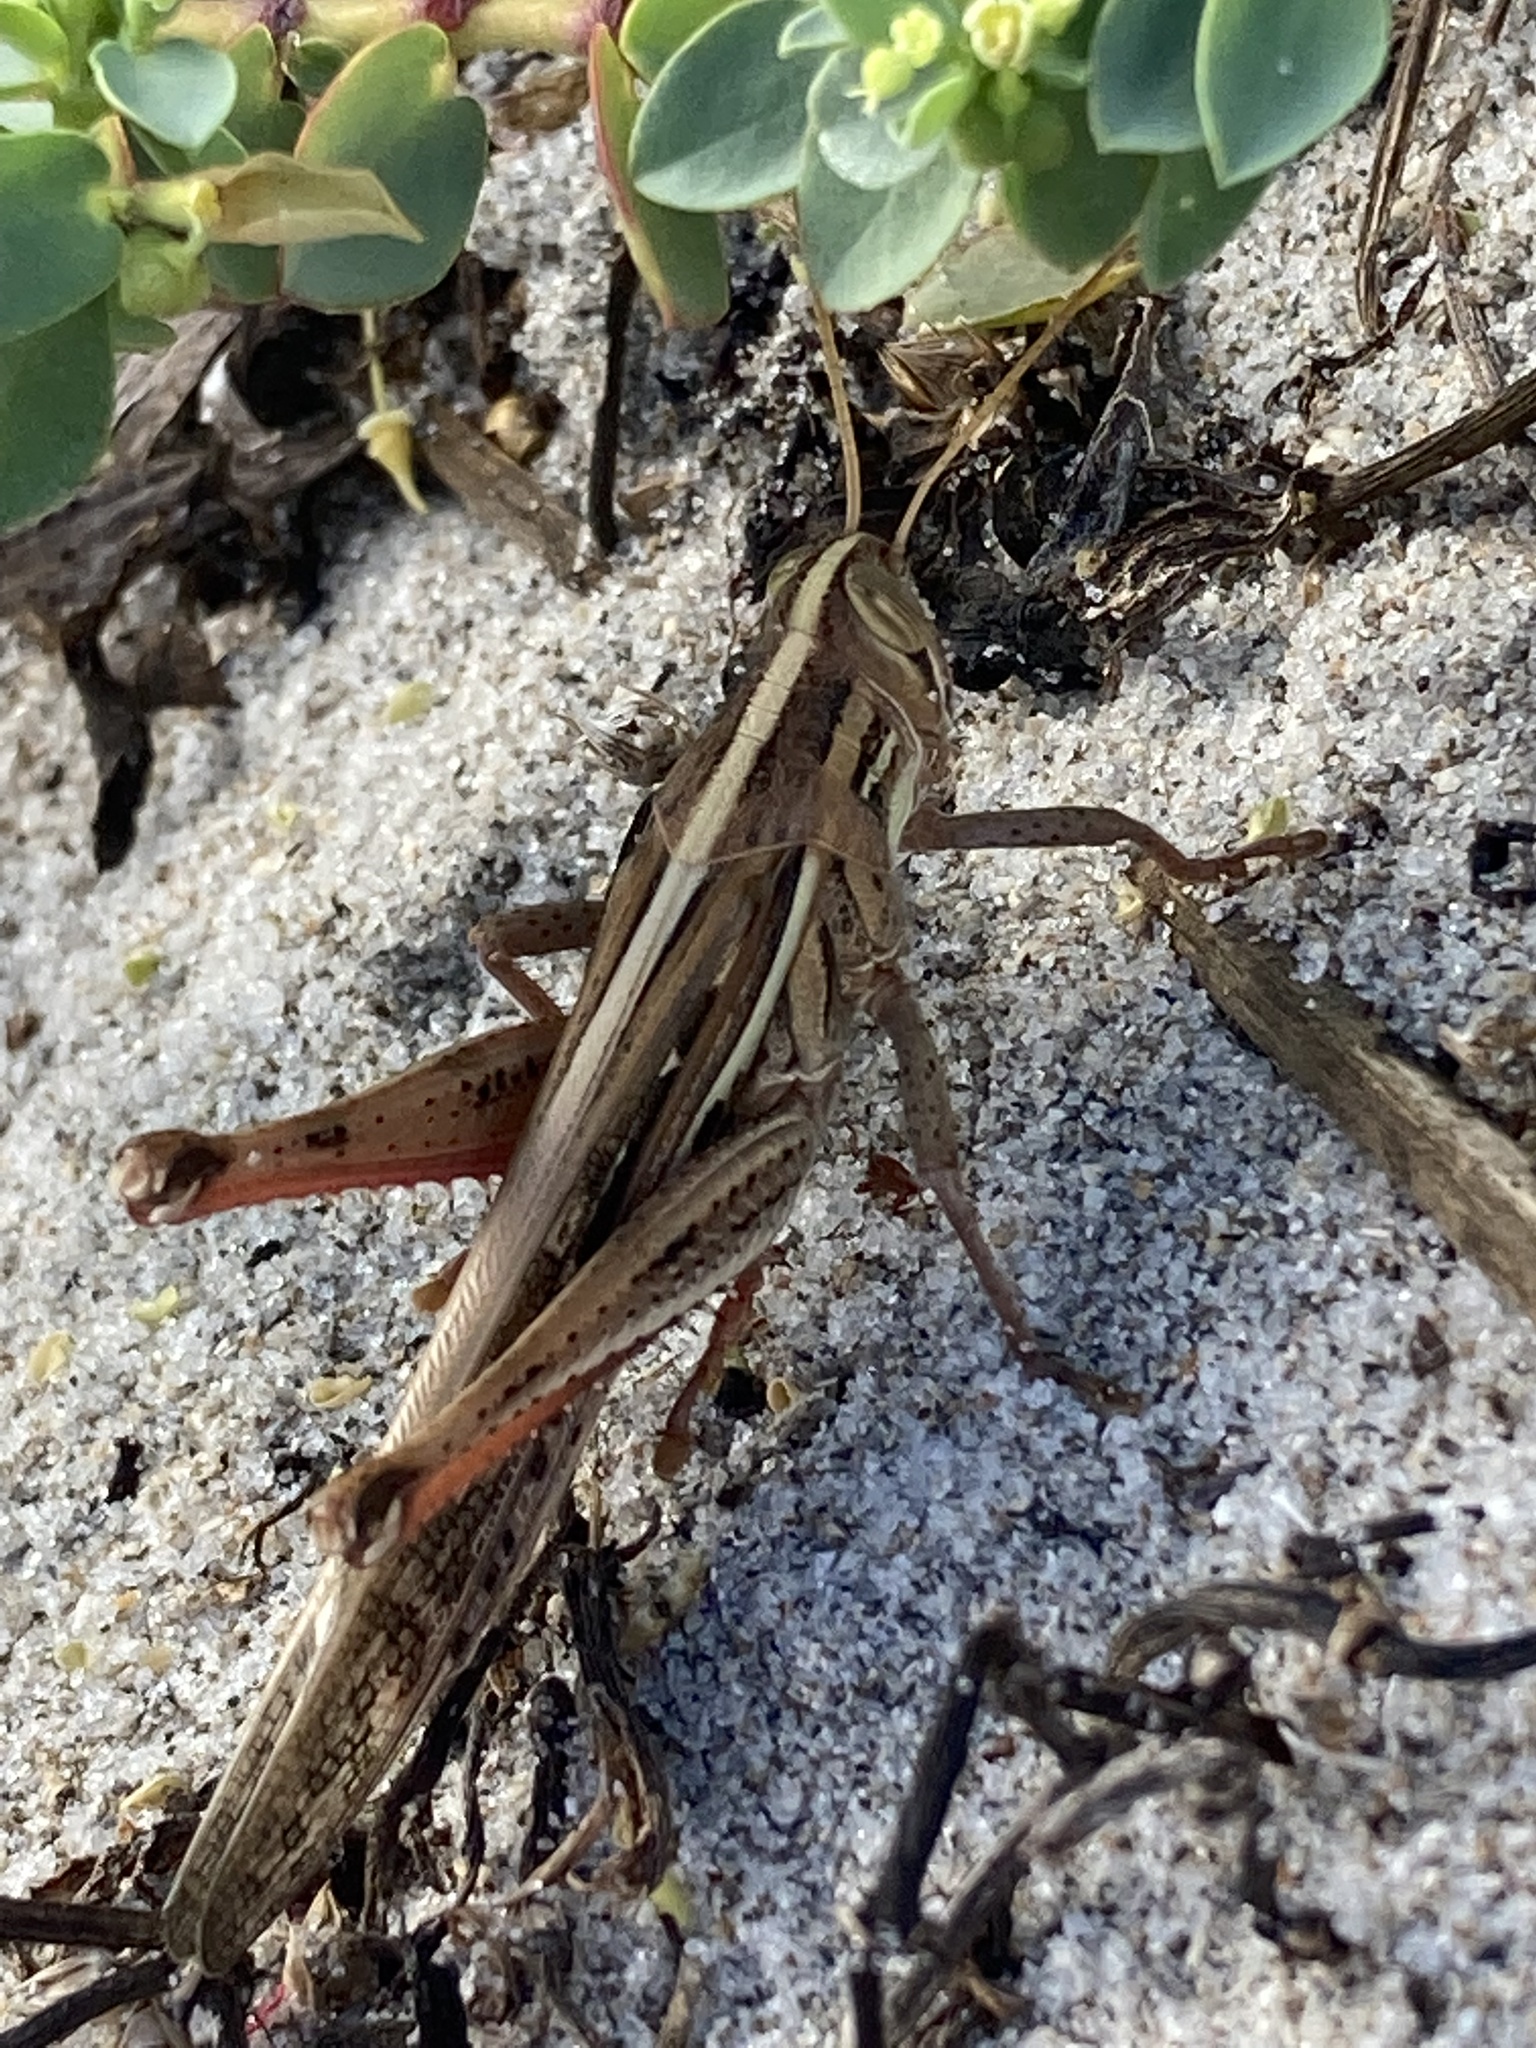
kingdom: Animalia
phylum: Arthropoda
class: Insecta
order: Orthoptera
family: Acrididae
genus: Schistocerca
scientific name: Schistocerca serialis
